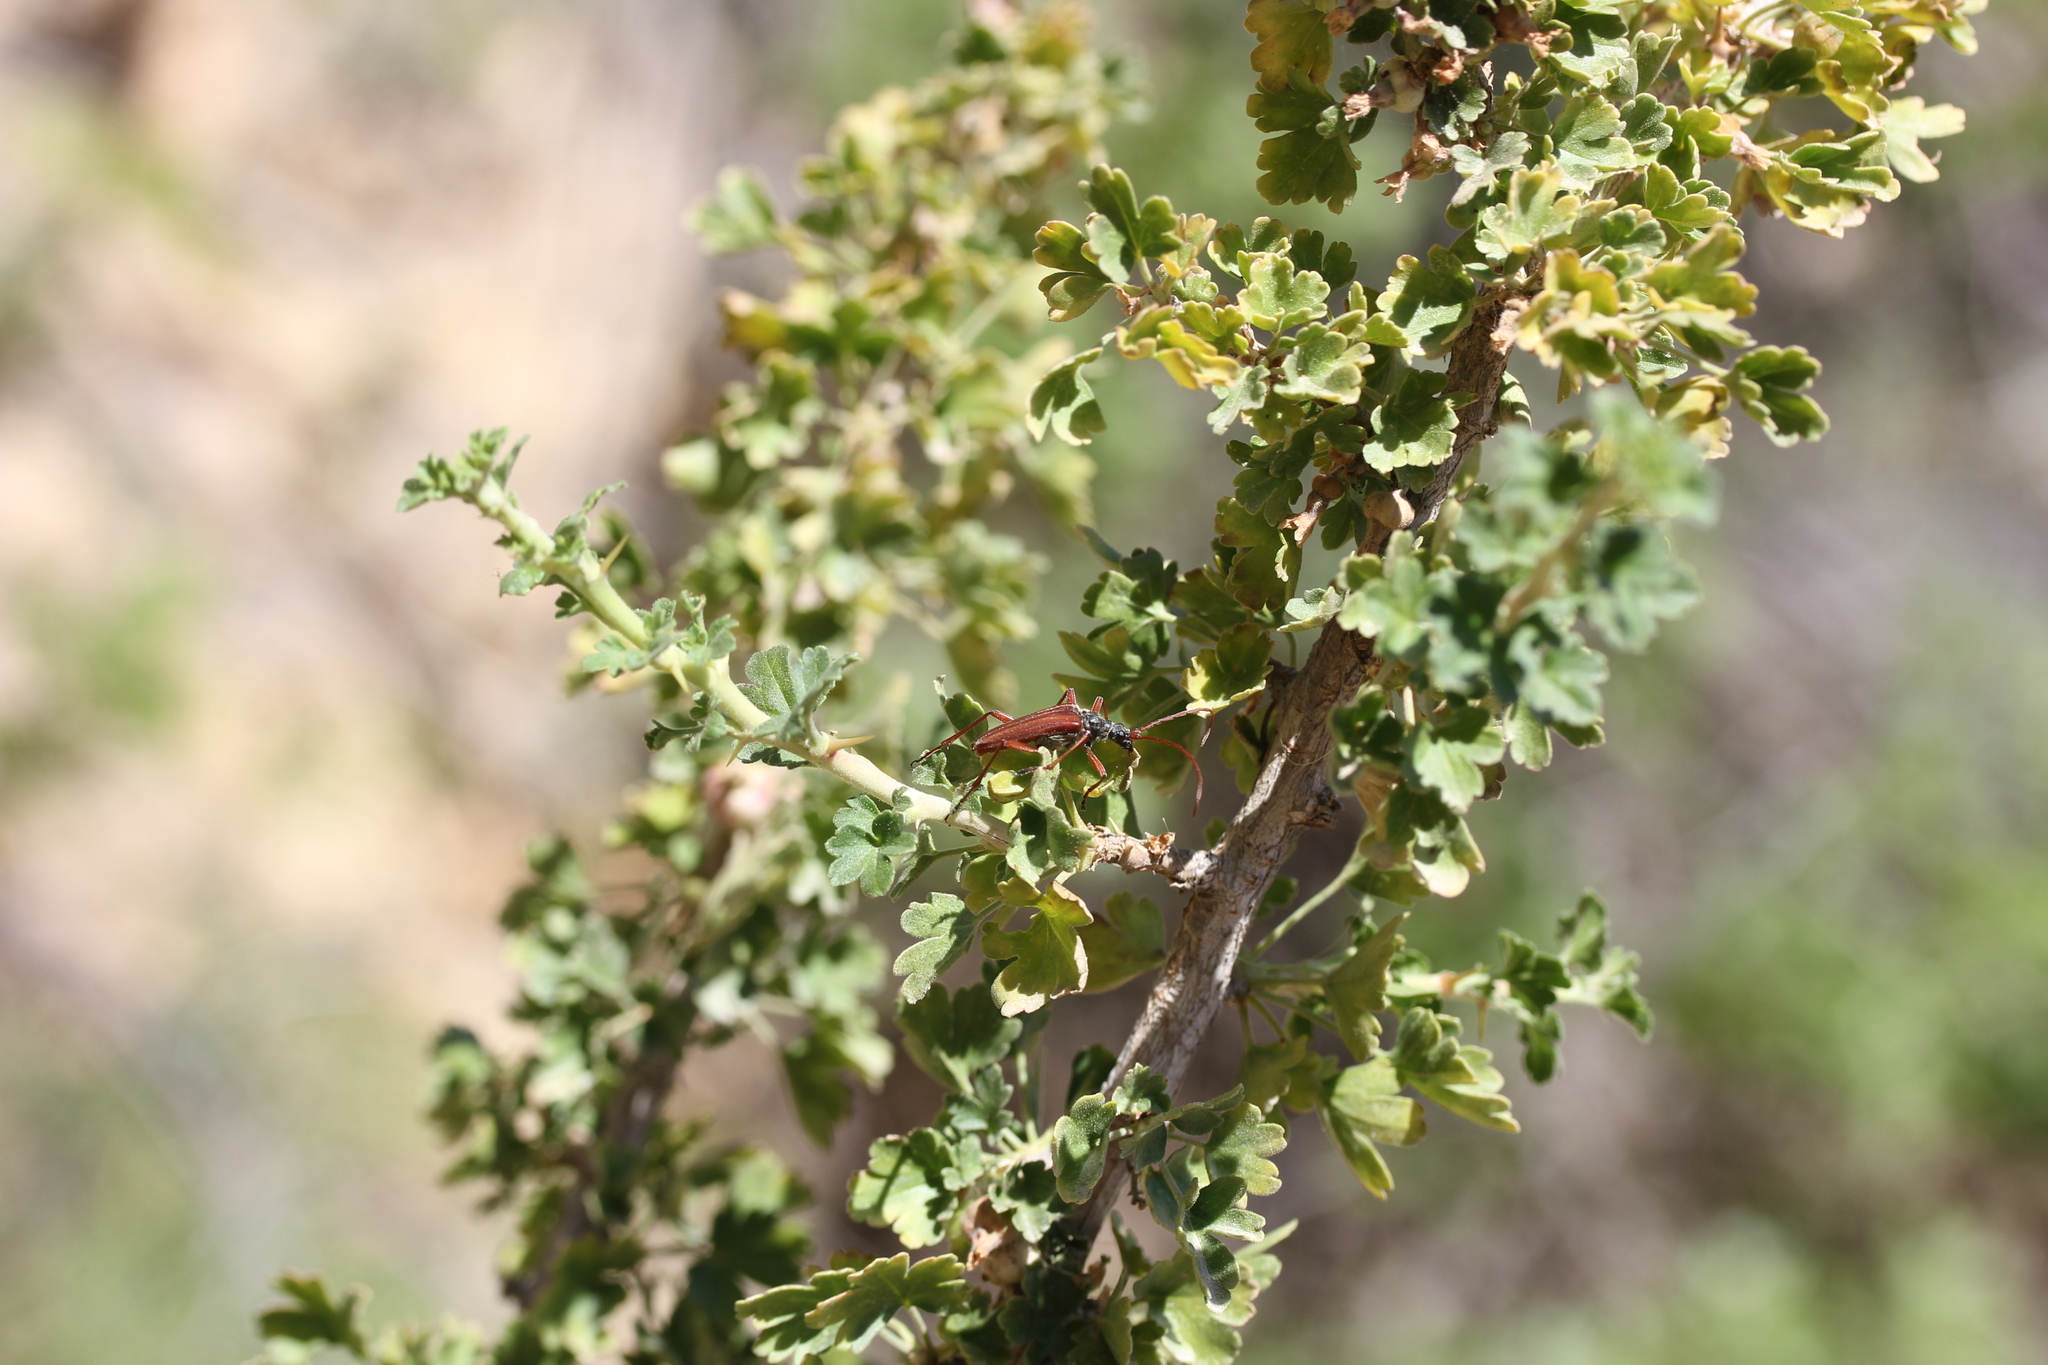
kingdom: Plantae
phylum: Tracheophyta
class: Magnoliopsida
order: Saxifragales
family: Grossulariaceae
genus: Ribes
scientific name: Ribes cereum
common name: Wax currant
